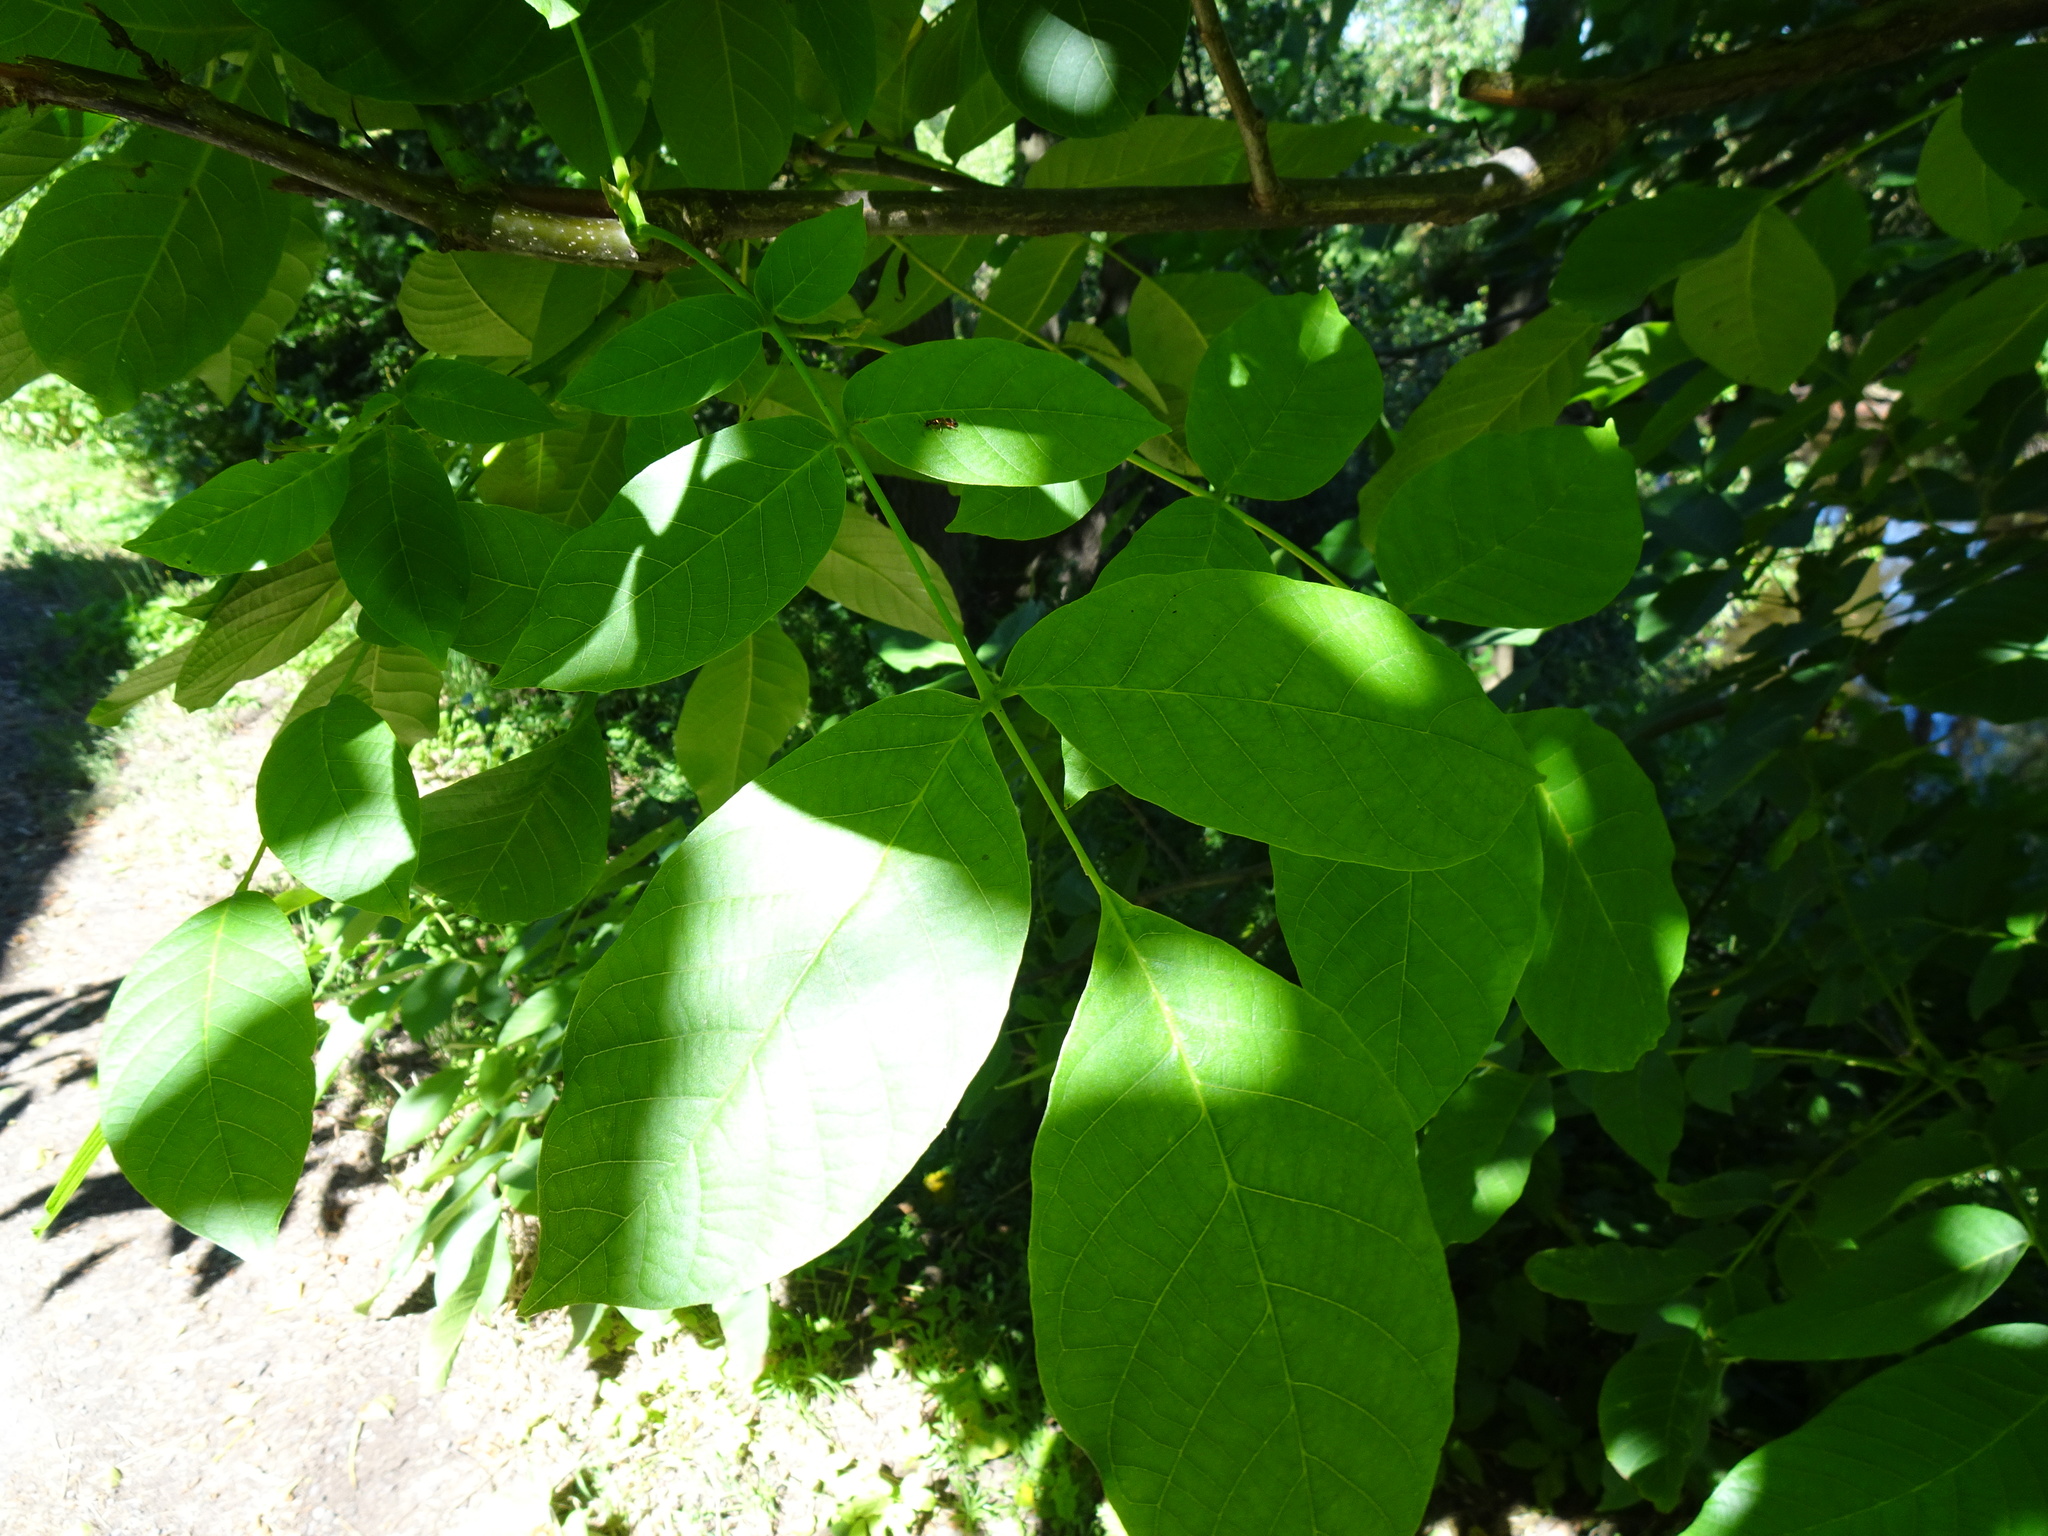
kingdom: Plantae
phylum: Tracheophyta
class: Magnoliopsida
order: Fagales
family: Juglandaceae
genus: Juglans
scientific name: Juglans regia
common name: Walnut
